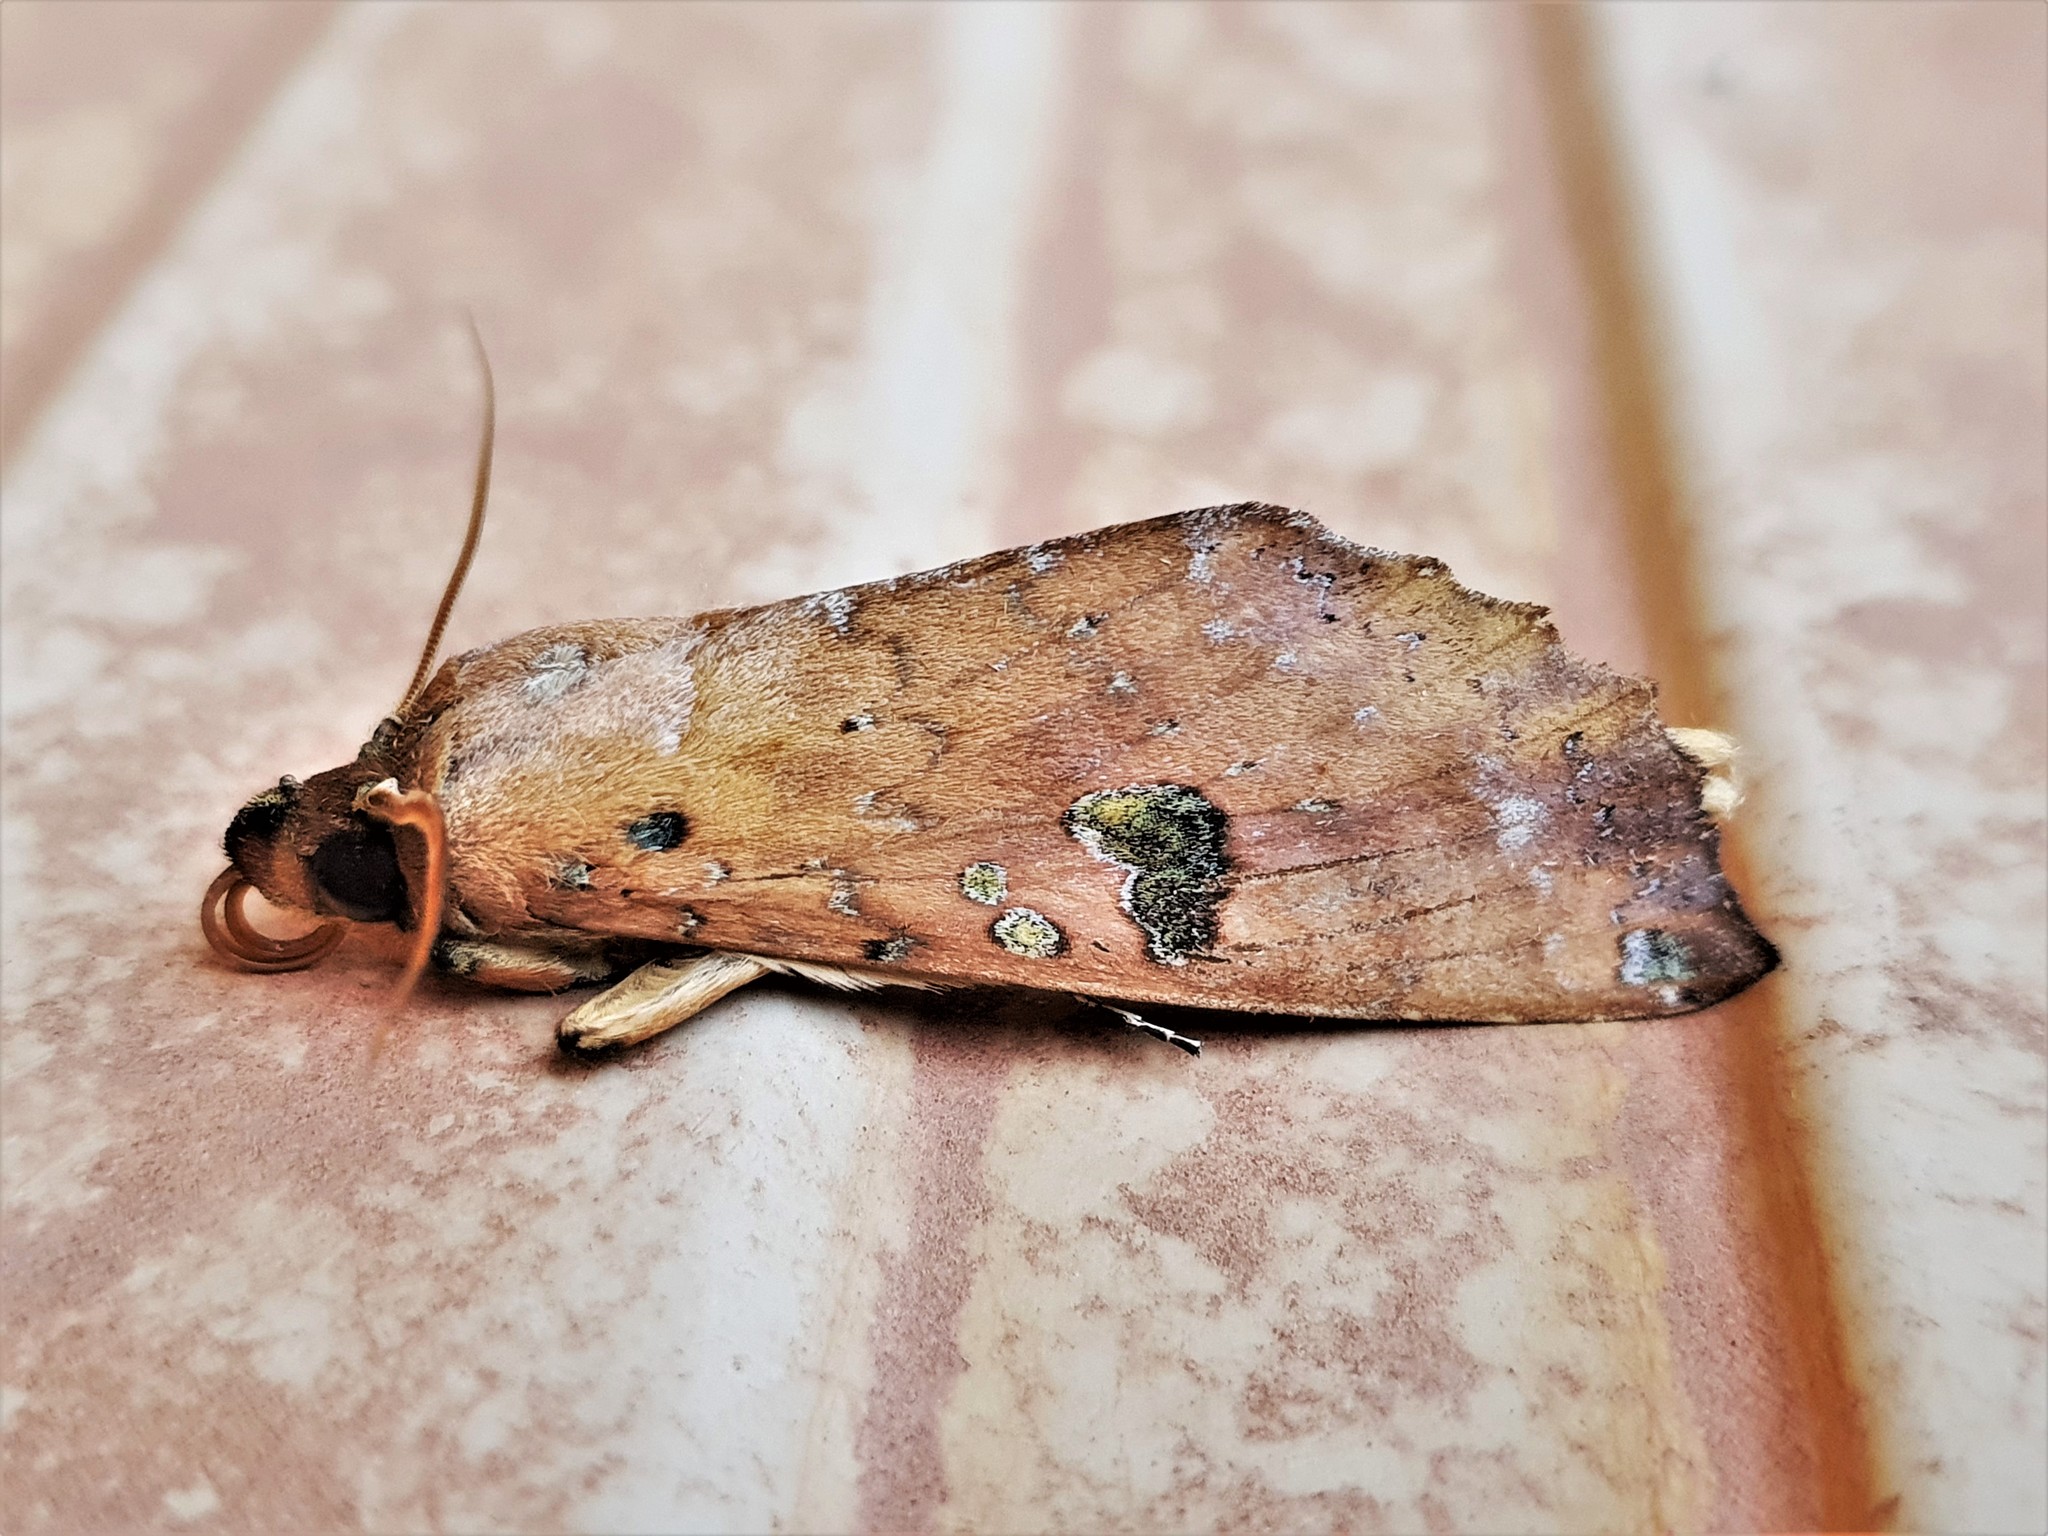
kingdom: Animalia
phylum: Arthropoda
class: Insecta
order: Lepidoptera
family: Notodontidae
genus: Hapigia
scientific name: Hapigia smerinthina
